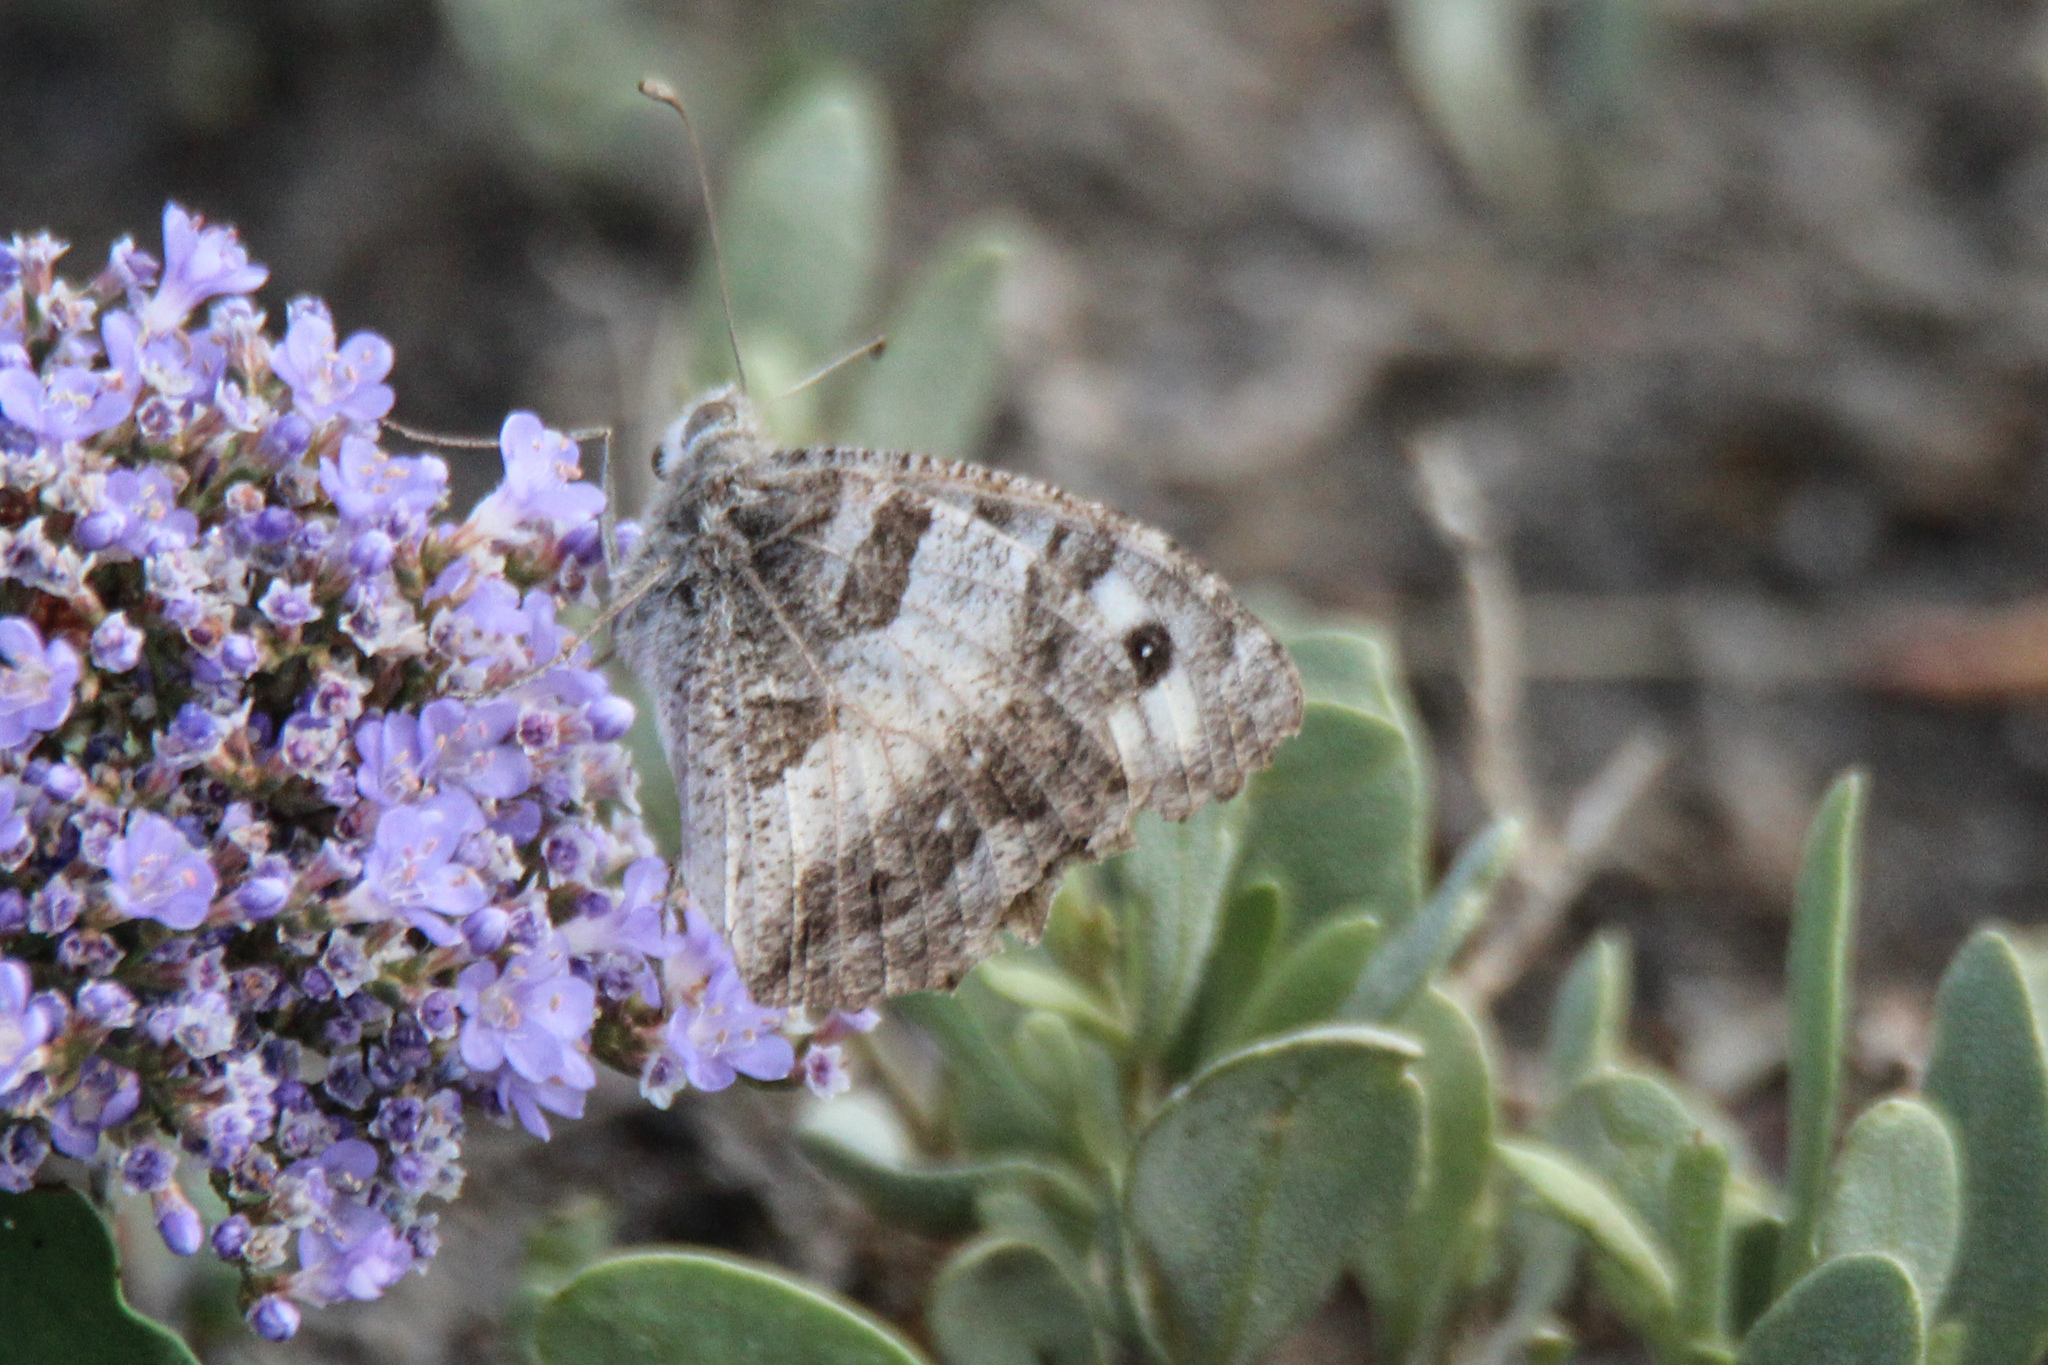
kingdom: Animalia
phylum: Arthropoda
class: Insecta
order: Lepidoptera
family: Nymphalidae
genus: Satyrus
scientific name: Satyrus briseis
